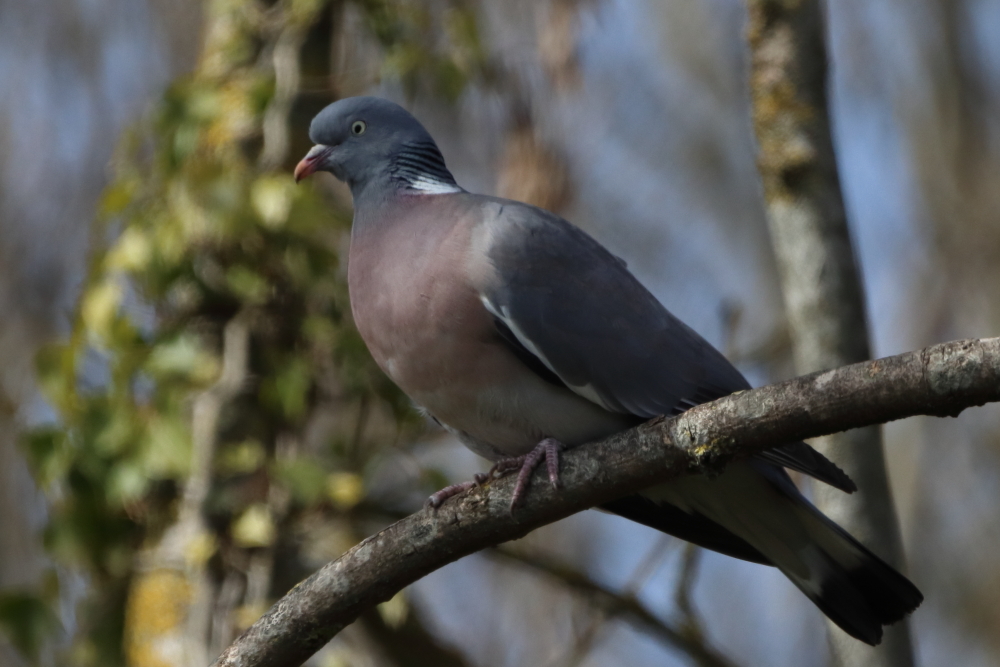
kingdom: Animalia
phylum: Chordata
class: Aves
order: Columbiformes
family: Columbidae
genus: Columba
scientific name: Columba palumbus
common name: Common wood pigeon
